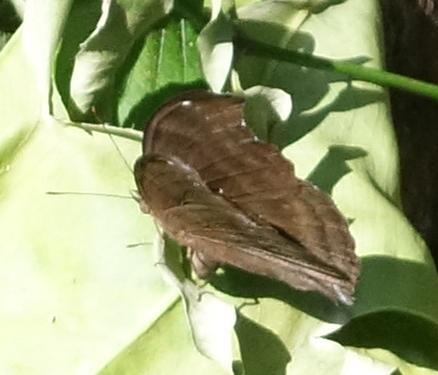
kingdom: Animalia
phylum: Arthropoda
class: Insecta
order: Lepidoptera
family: Nymphalidae
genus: Junonia
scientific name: Junonia iphita
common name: Chocolate pansy
